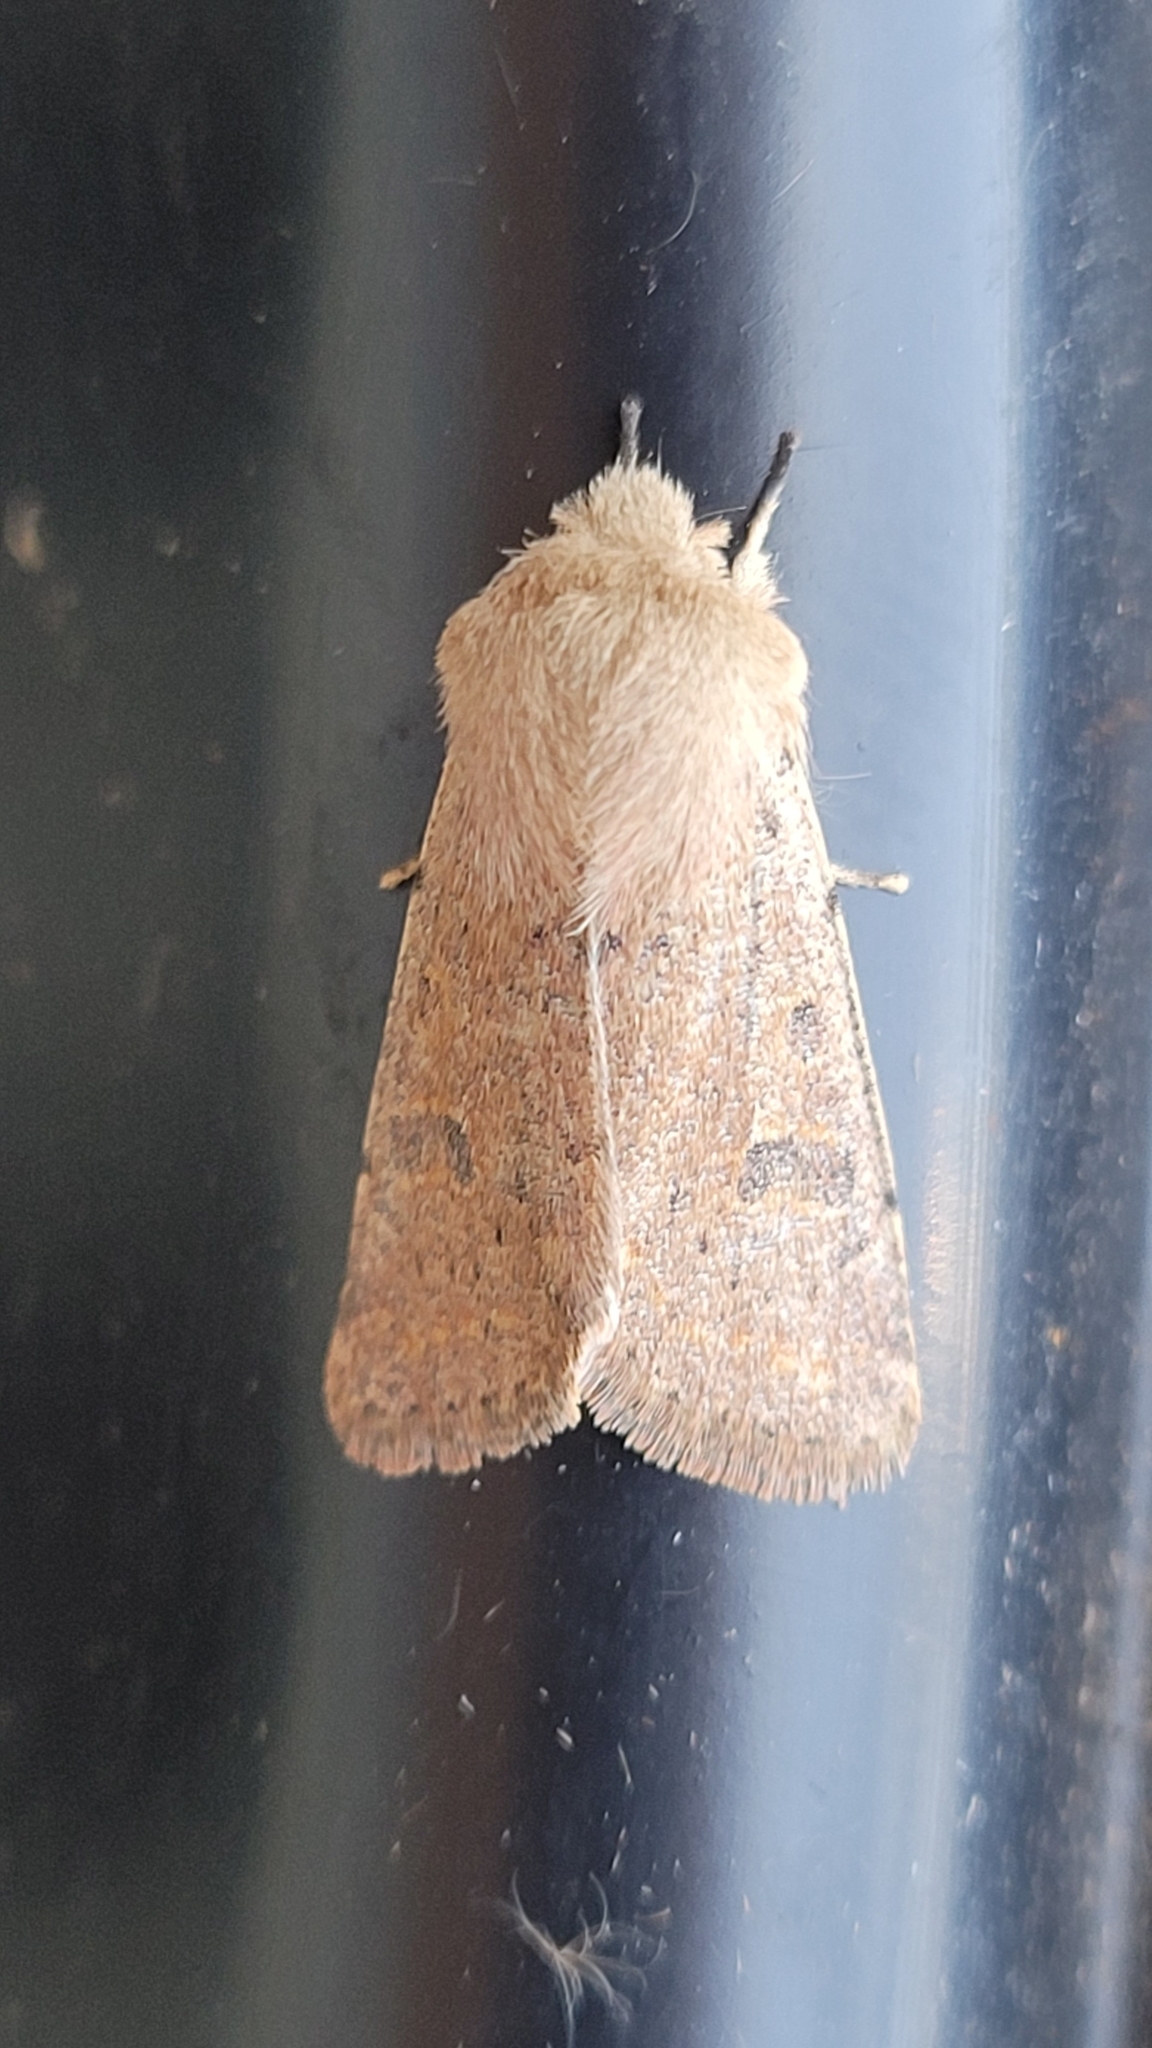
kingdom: Animalia
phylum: Arthropoda
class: Insecta
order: Lepidoptera
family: Noctuidae
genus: Orthosia
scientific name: Orthosia cruda
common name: Small quaker
